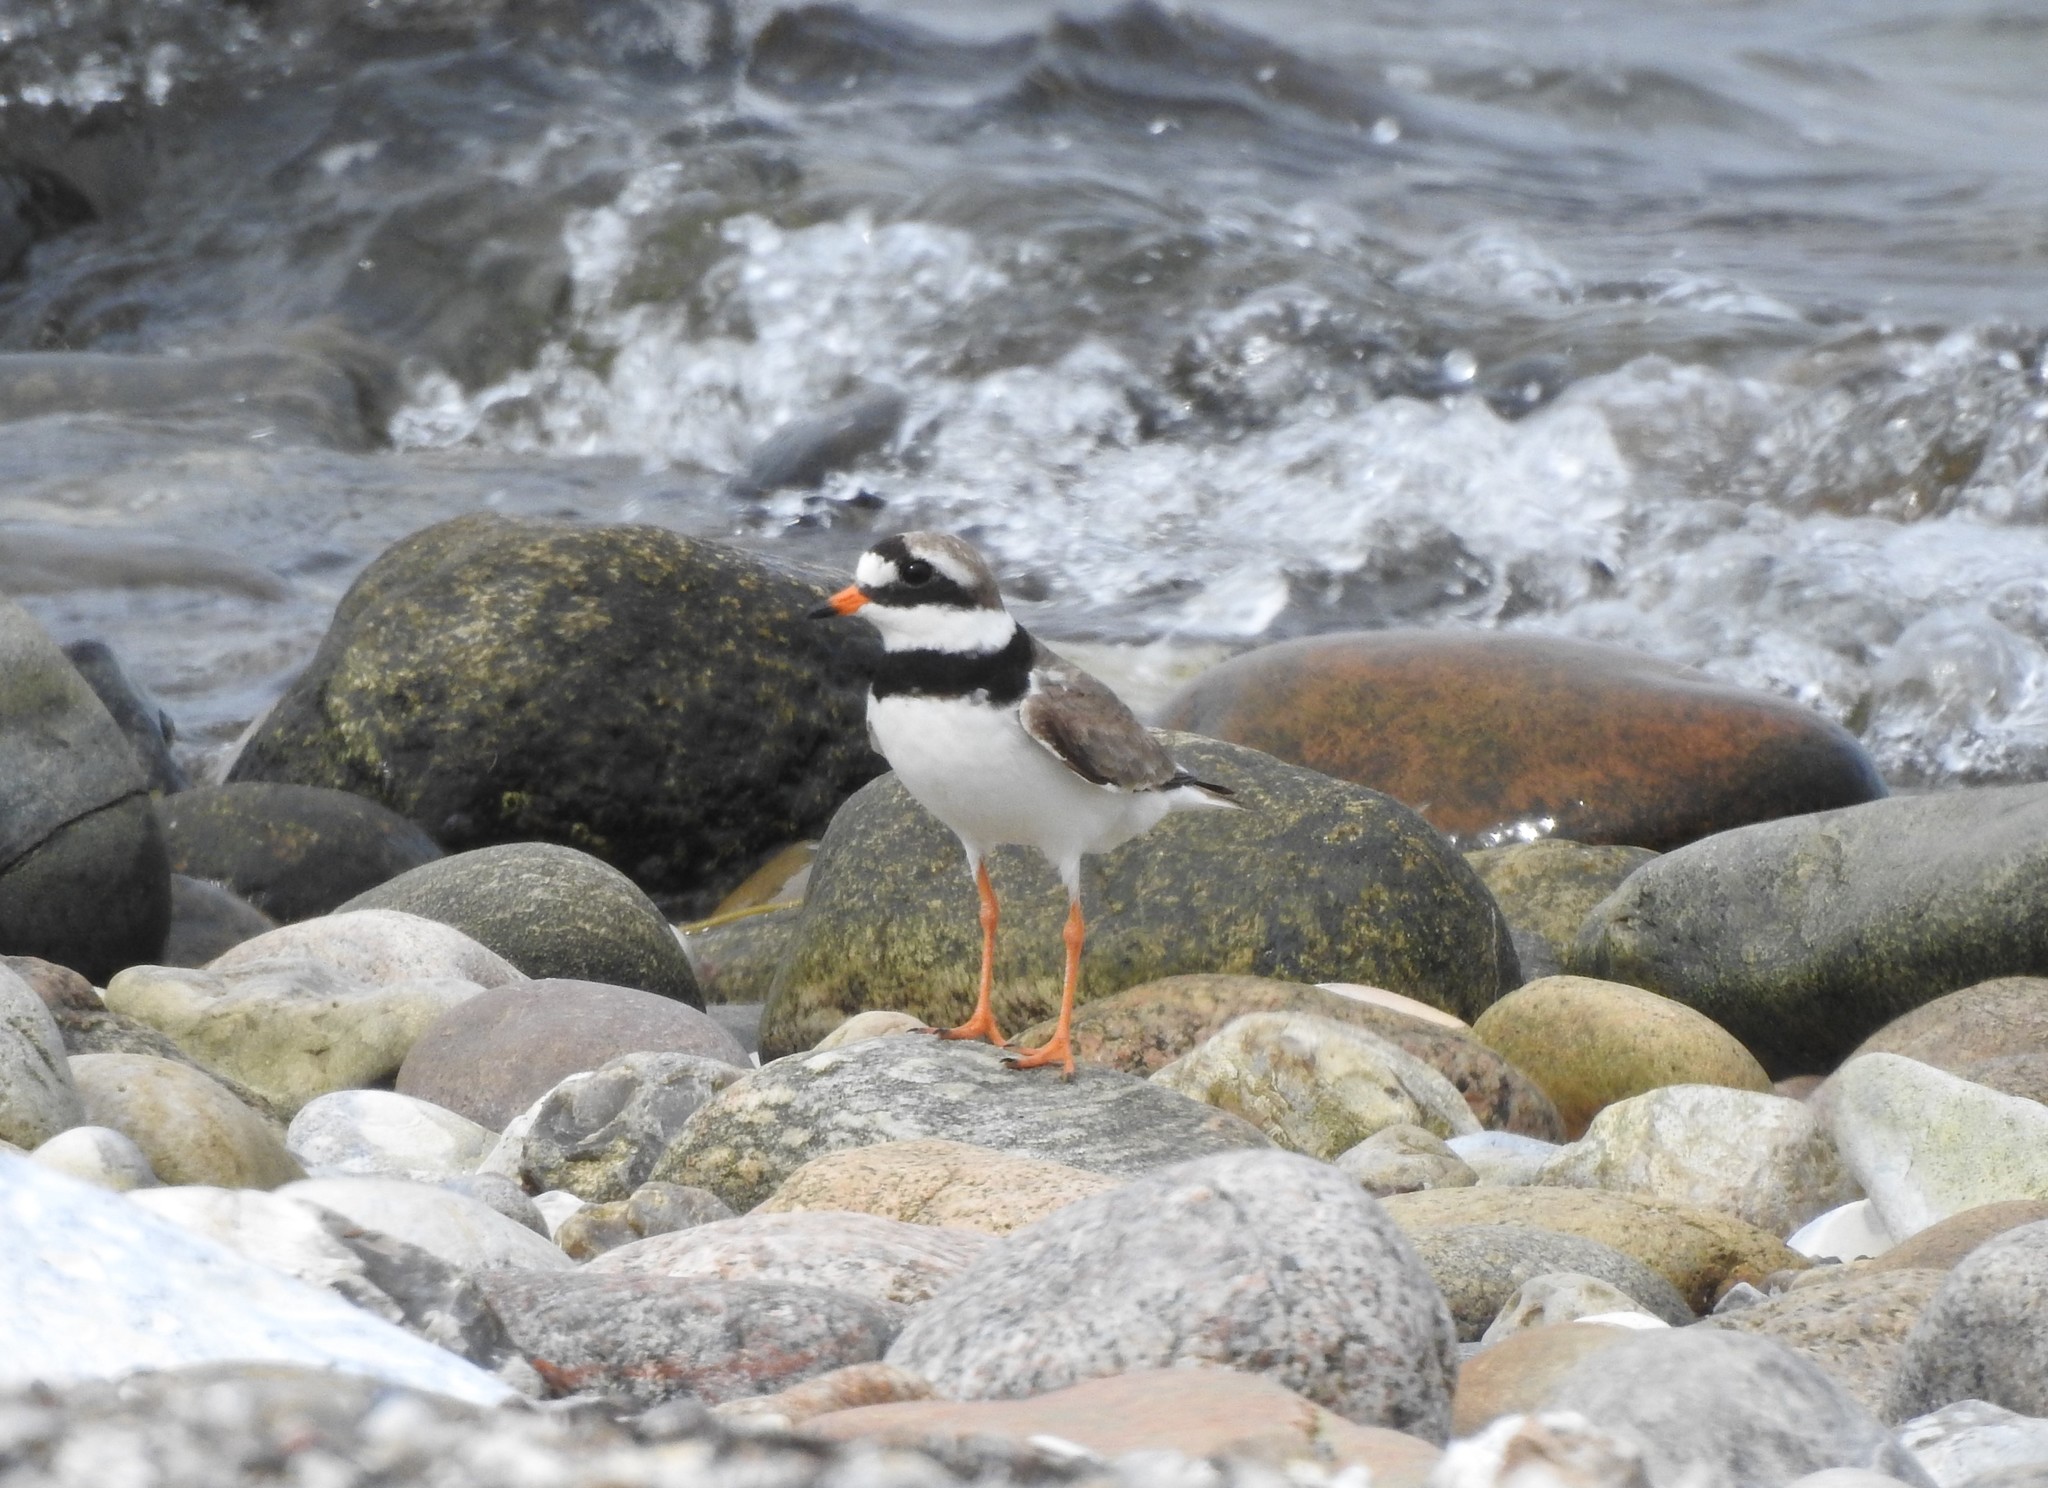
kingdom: Animalia
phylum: Chordata
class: Aves
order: Charadriiformes
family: Charadriidae
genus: Charadrius
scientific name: Charadrius hiaticula
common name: Common ringed plover
